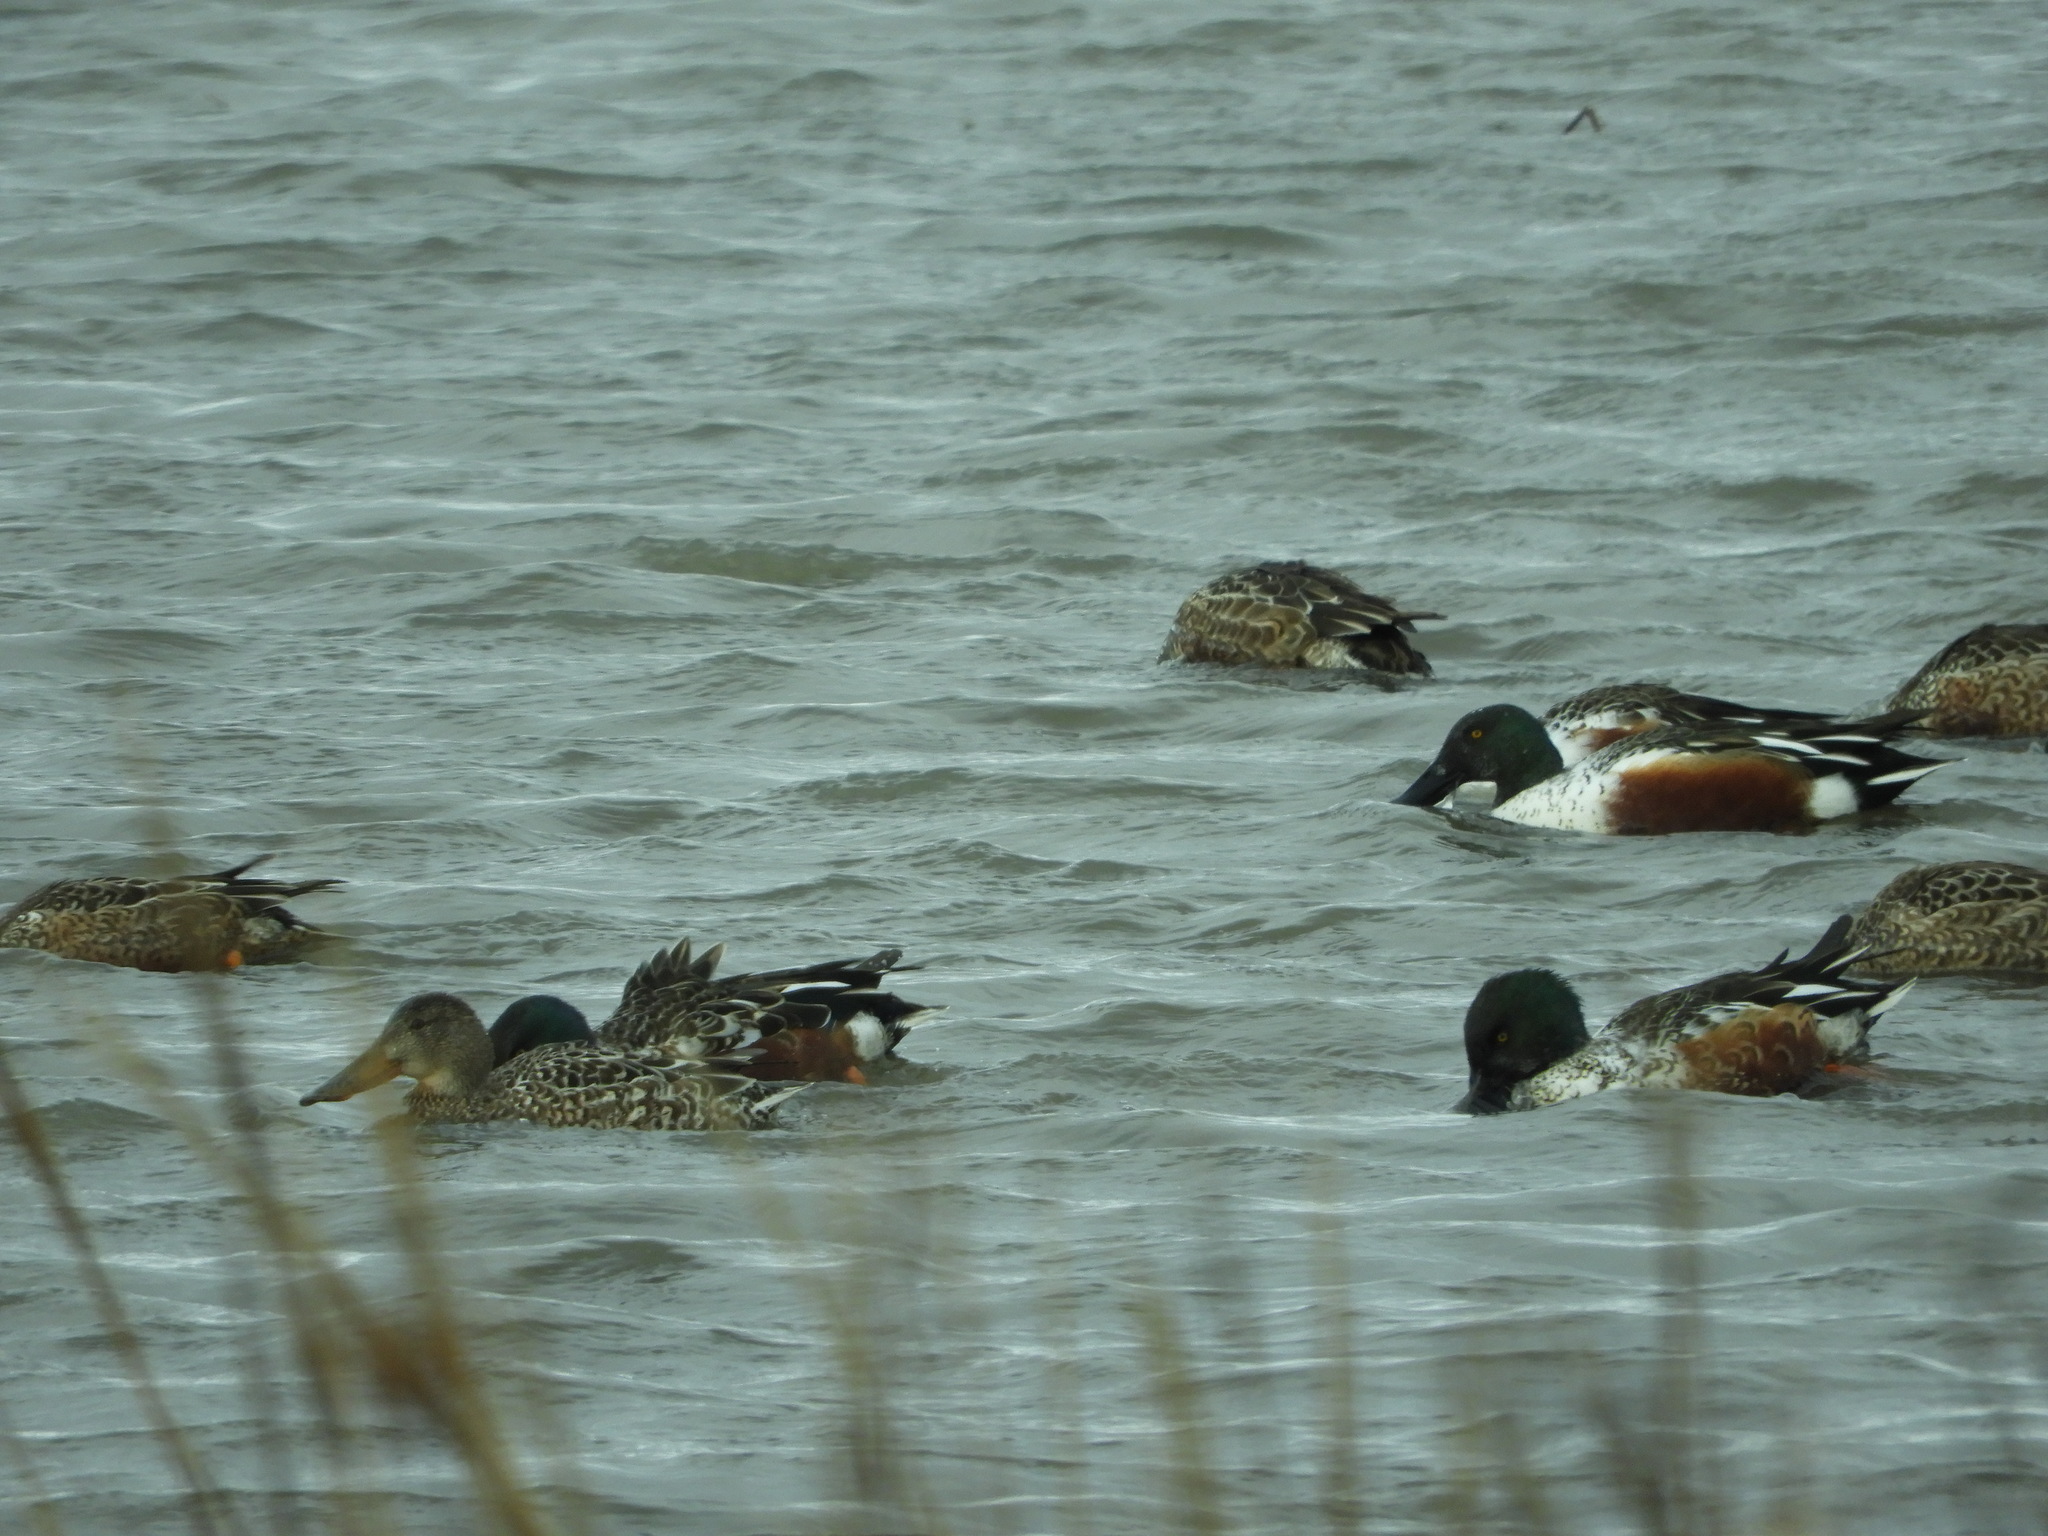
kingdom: Animalia
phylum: Chordata
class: Aves
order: Anseriformes
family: Anatidae
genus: Spatula
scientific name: Spatula clypeata
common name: Northern shoveler
